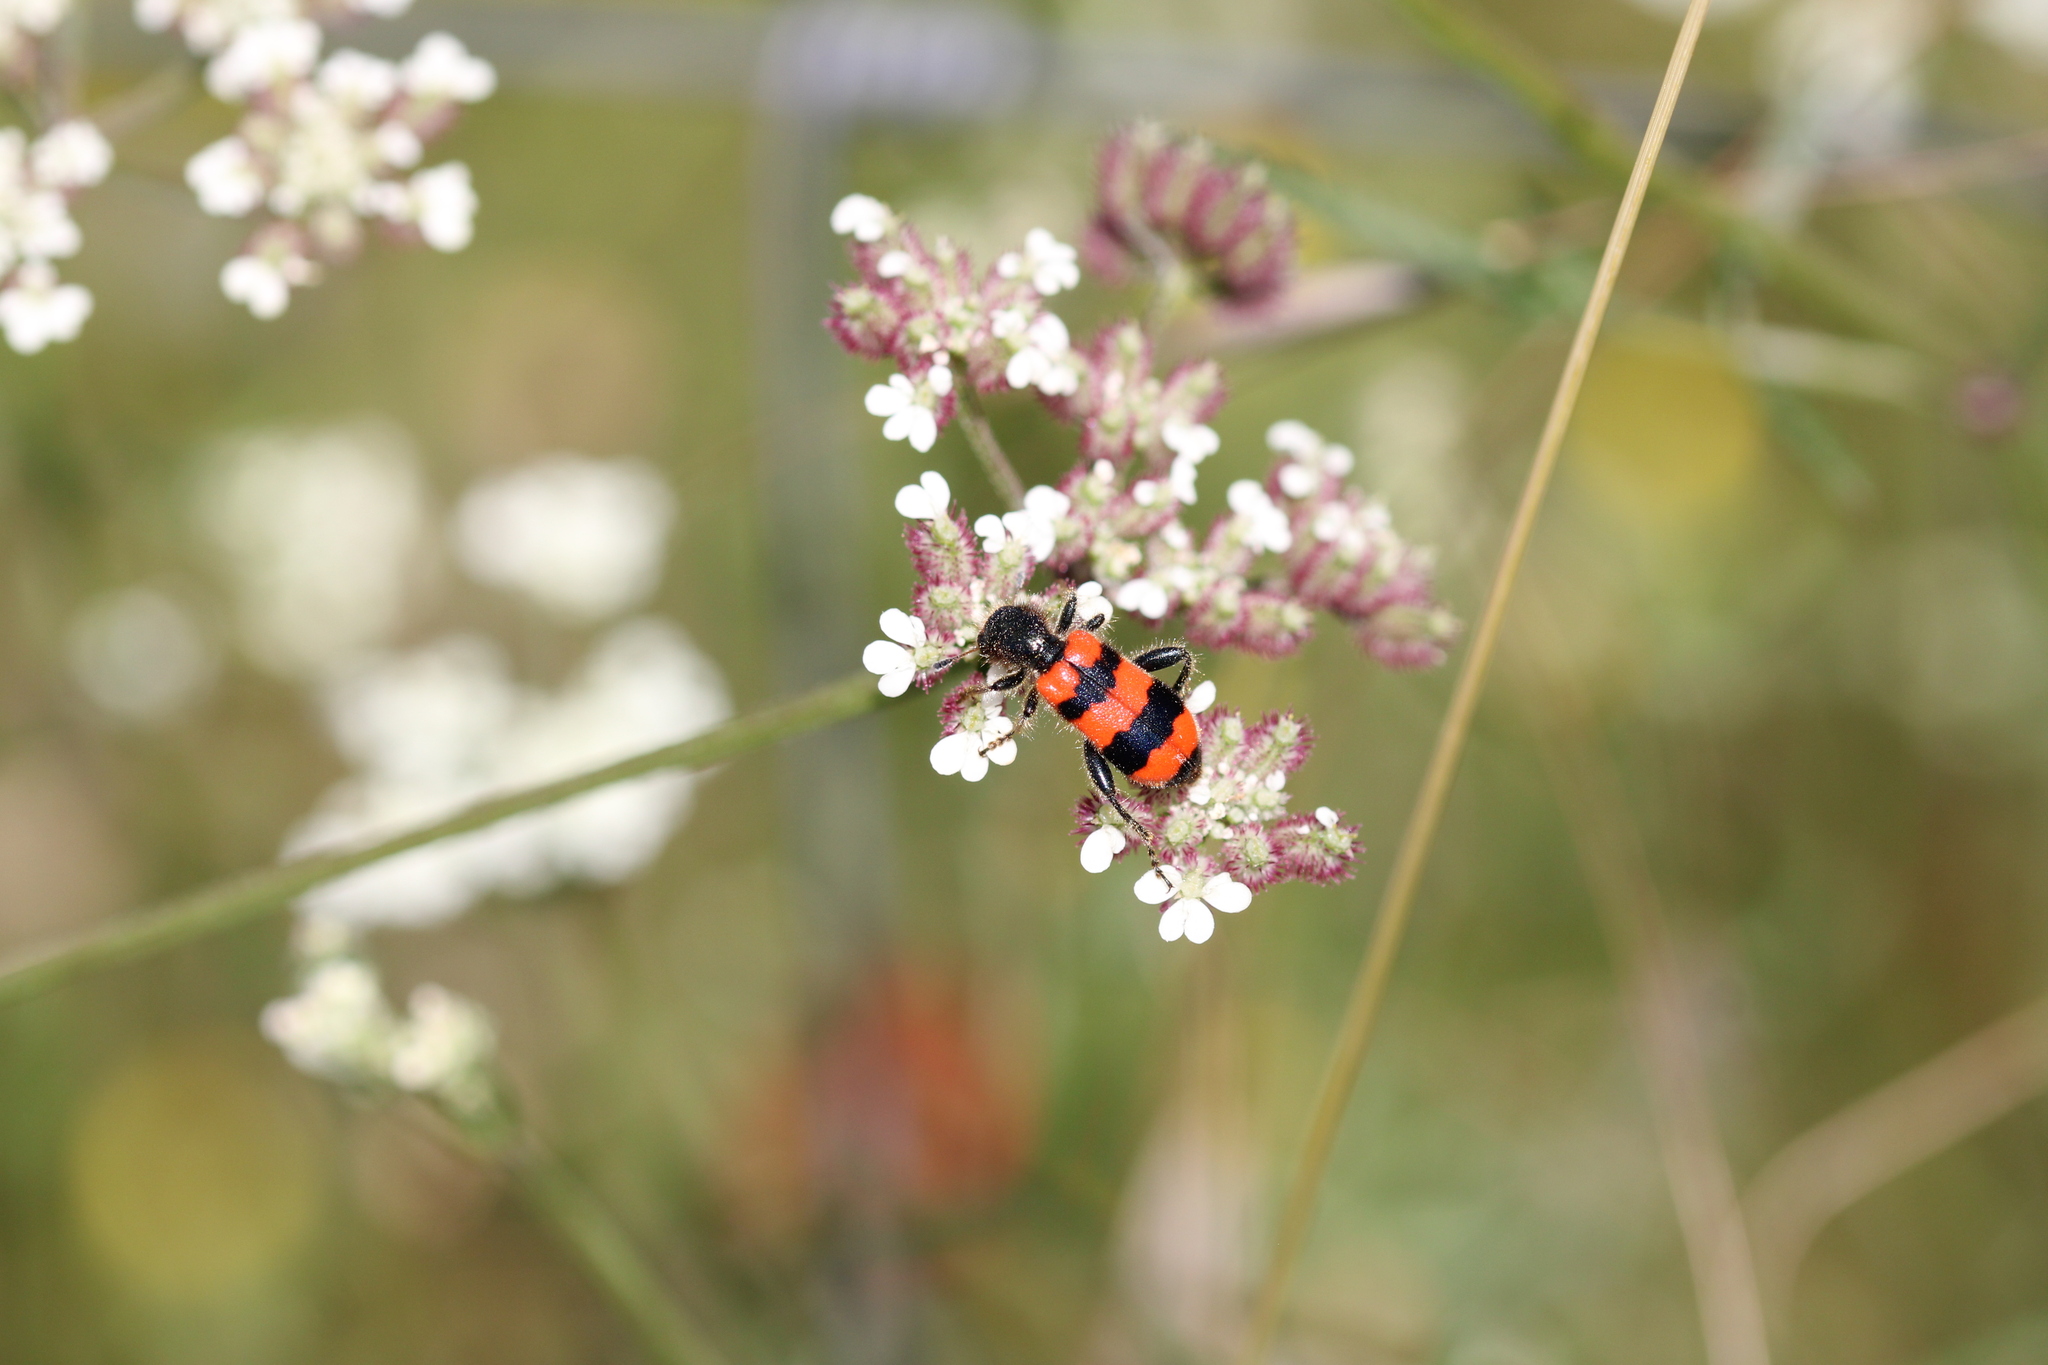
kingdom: Animalia
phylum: Arthropoda
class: Insecta
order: Coleoptera
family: Cleridae
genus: Trichodes
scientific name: Trichodes apiarius
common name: Bee-eating beetle
